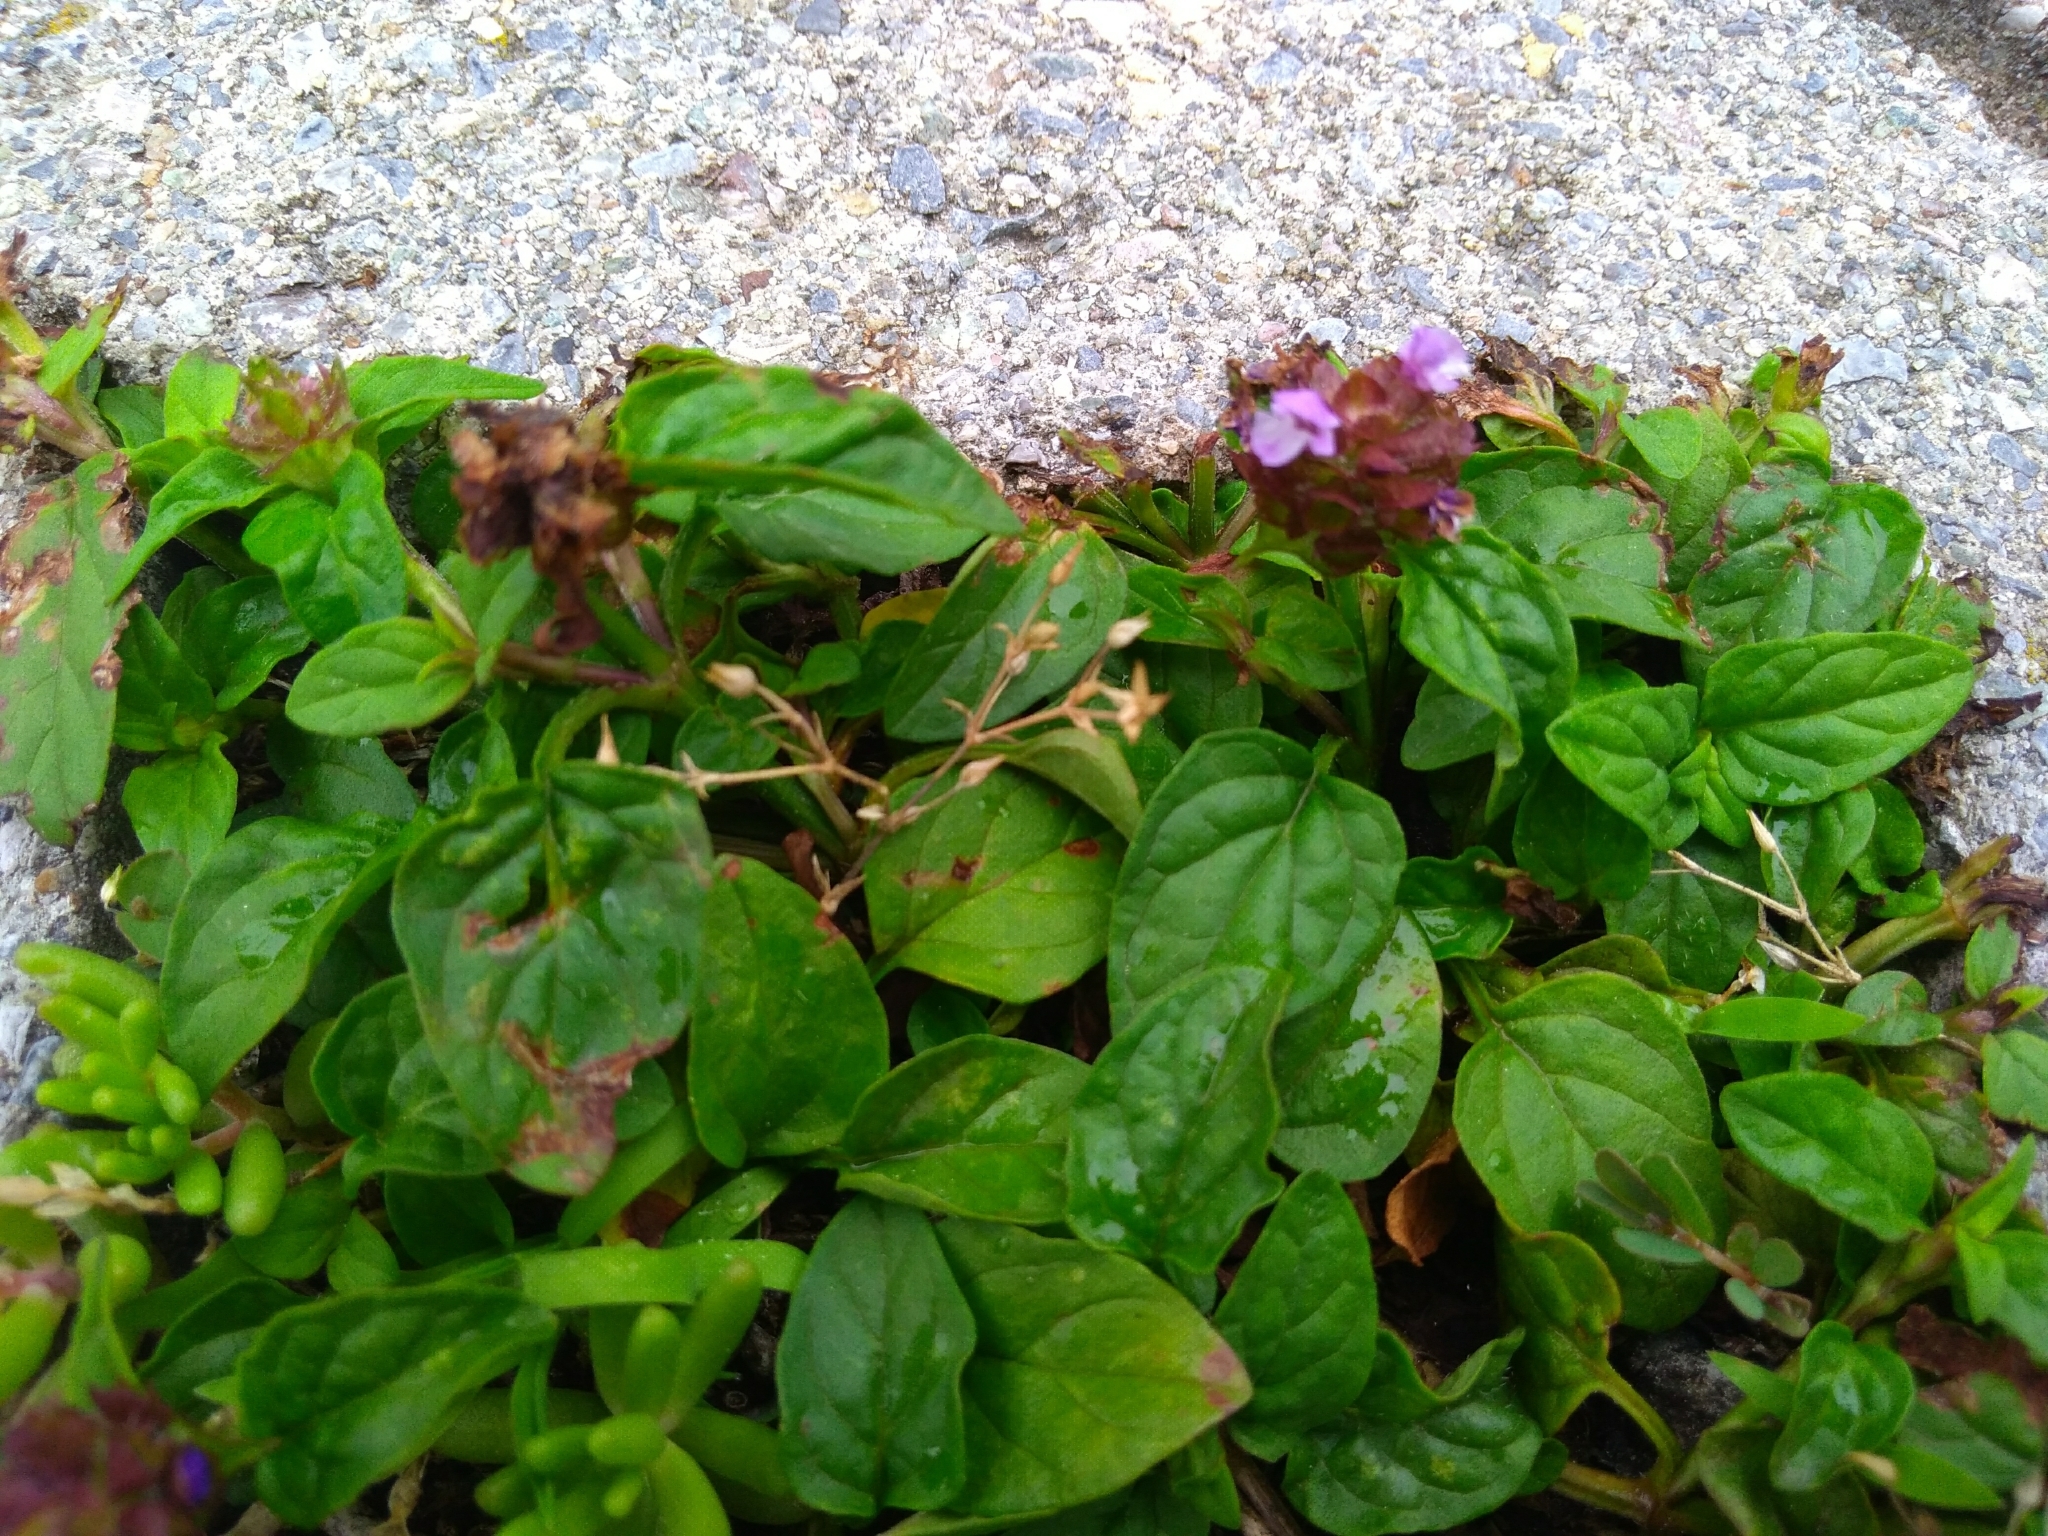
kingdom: Plantae
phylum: Tracheophyta
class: Magnoliopsida
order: Lamiales
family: Lamiaceae
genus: Prunella
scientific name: Prunella vulgaris
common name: Heal-all
